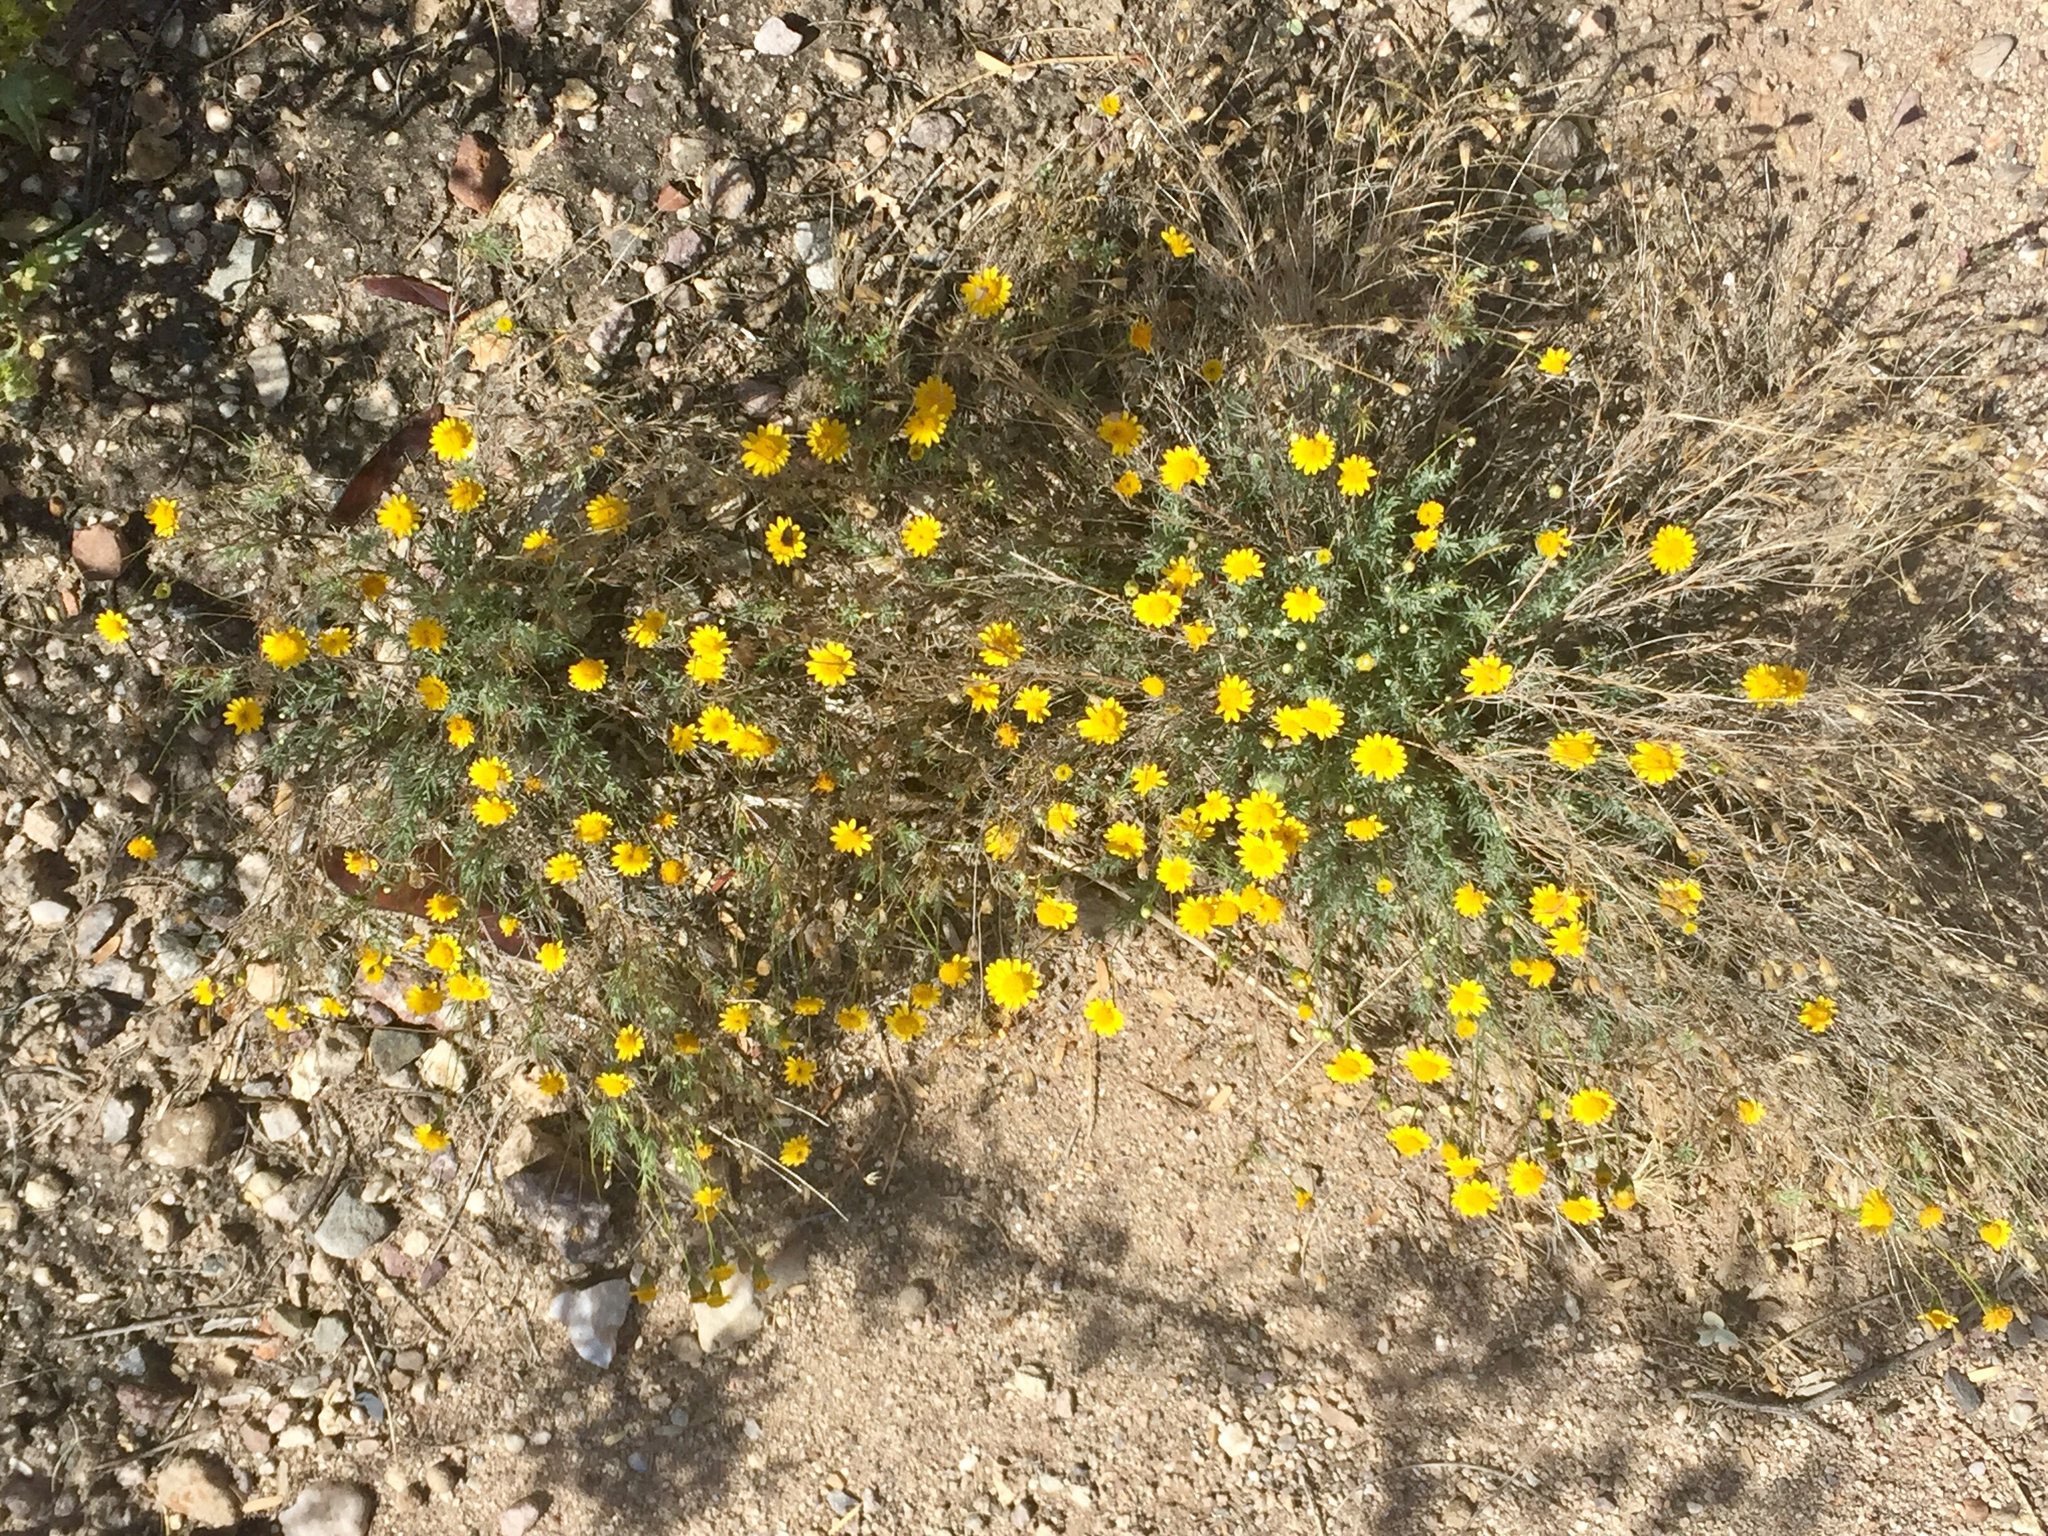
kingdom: Plantae
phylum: Tracheophyta
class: Magnoliopsida
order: Asterales
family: Asteraceae
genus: Thymophylla
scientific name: Thymophylla pentachaeta
